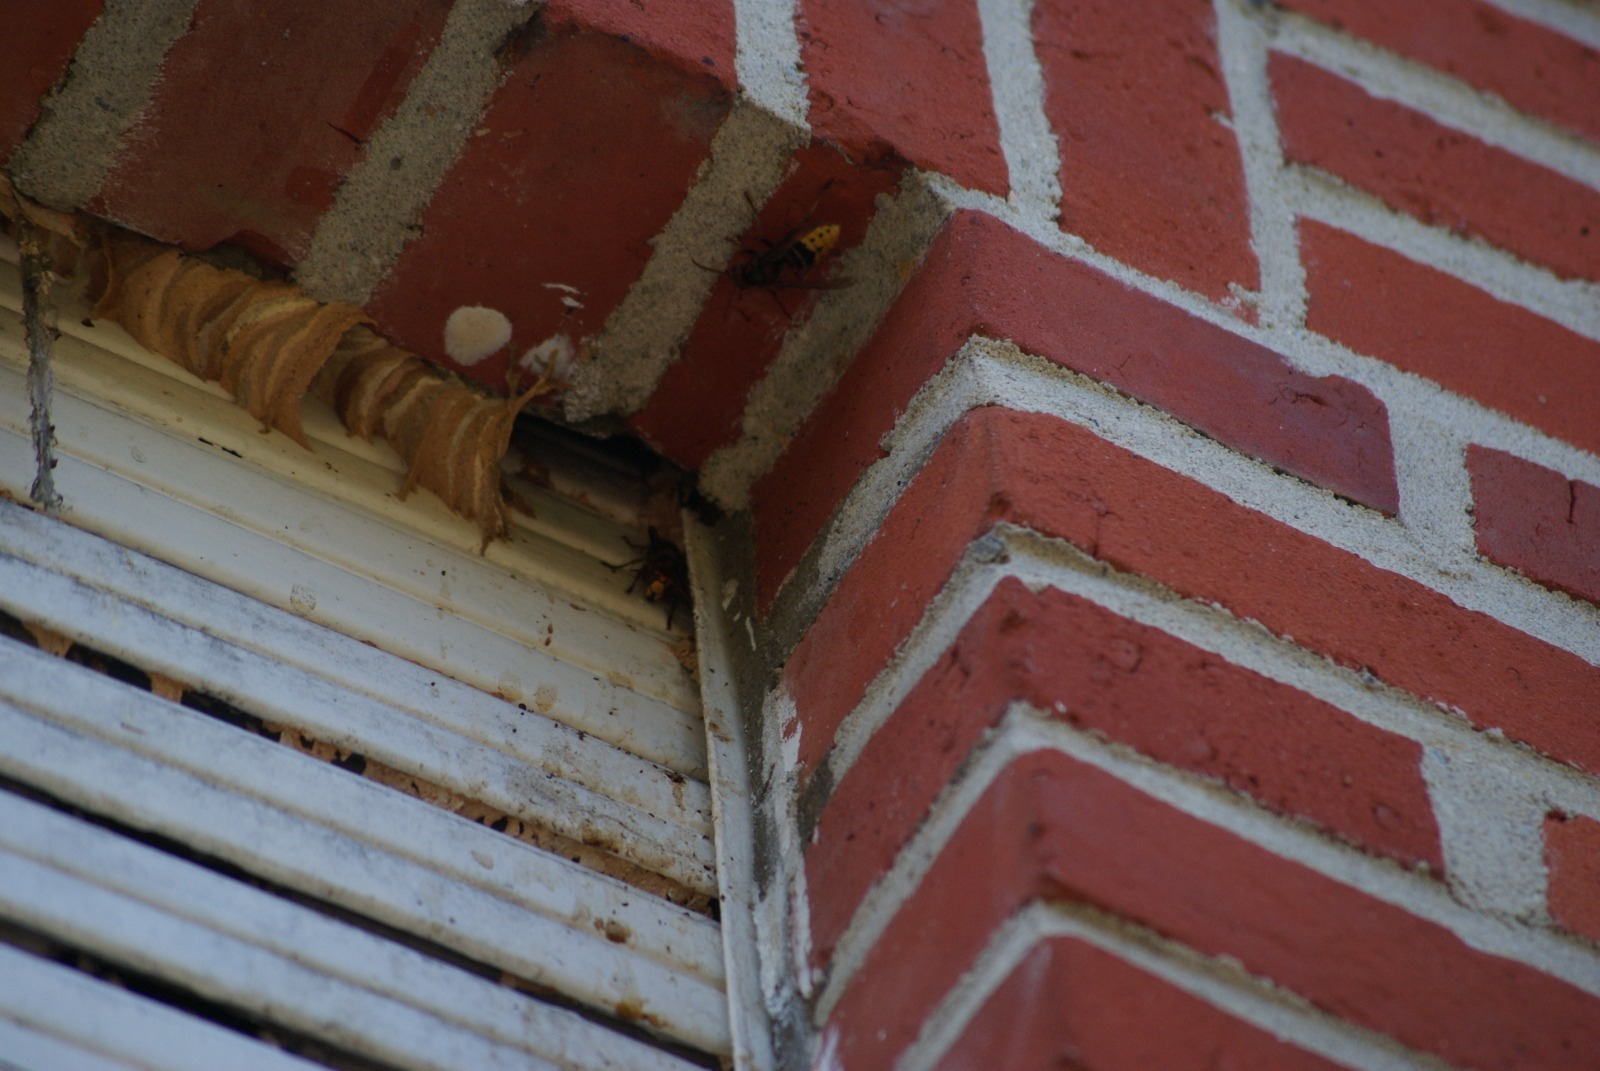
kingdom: Animalia
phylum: Arthropoda
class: Insecta
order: Hymenoptera
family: Vespidae
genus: Vespa
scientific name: Vespa crabro
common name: Hornet
